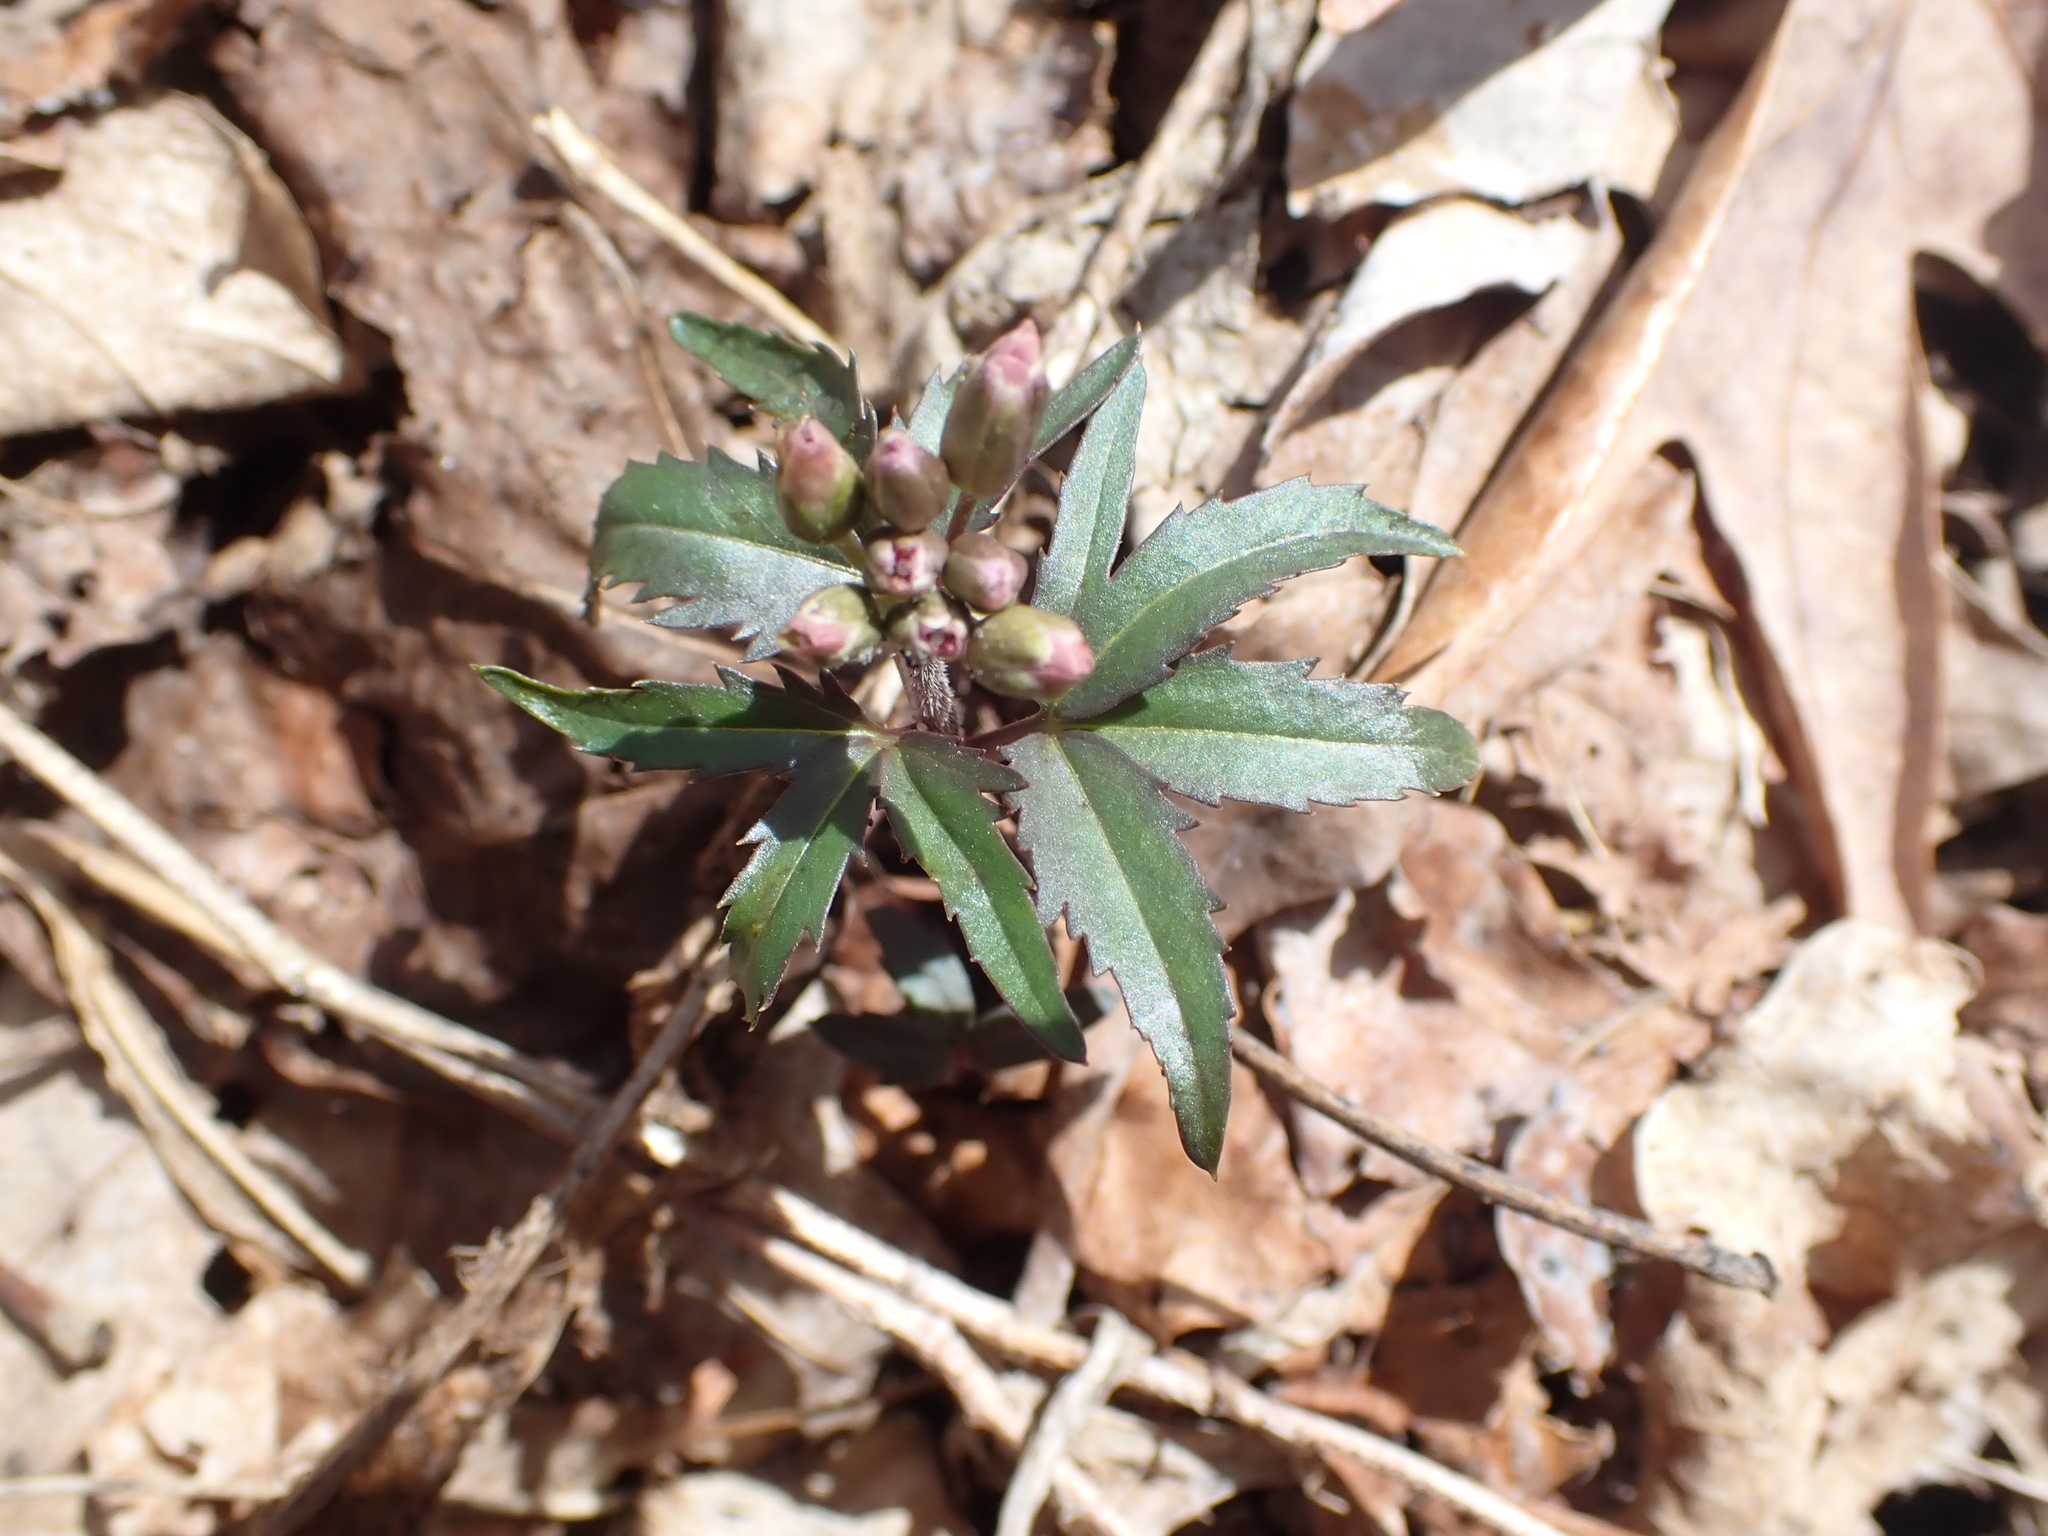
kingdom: Plantae
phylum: Tracheophyta
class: Magnoliopsida
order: Brassicales
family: Brassicaceae
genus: Cardamine
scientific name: Cardamine concatenata
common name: Cut-leaf toothcup
